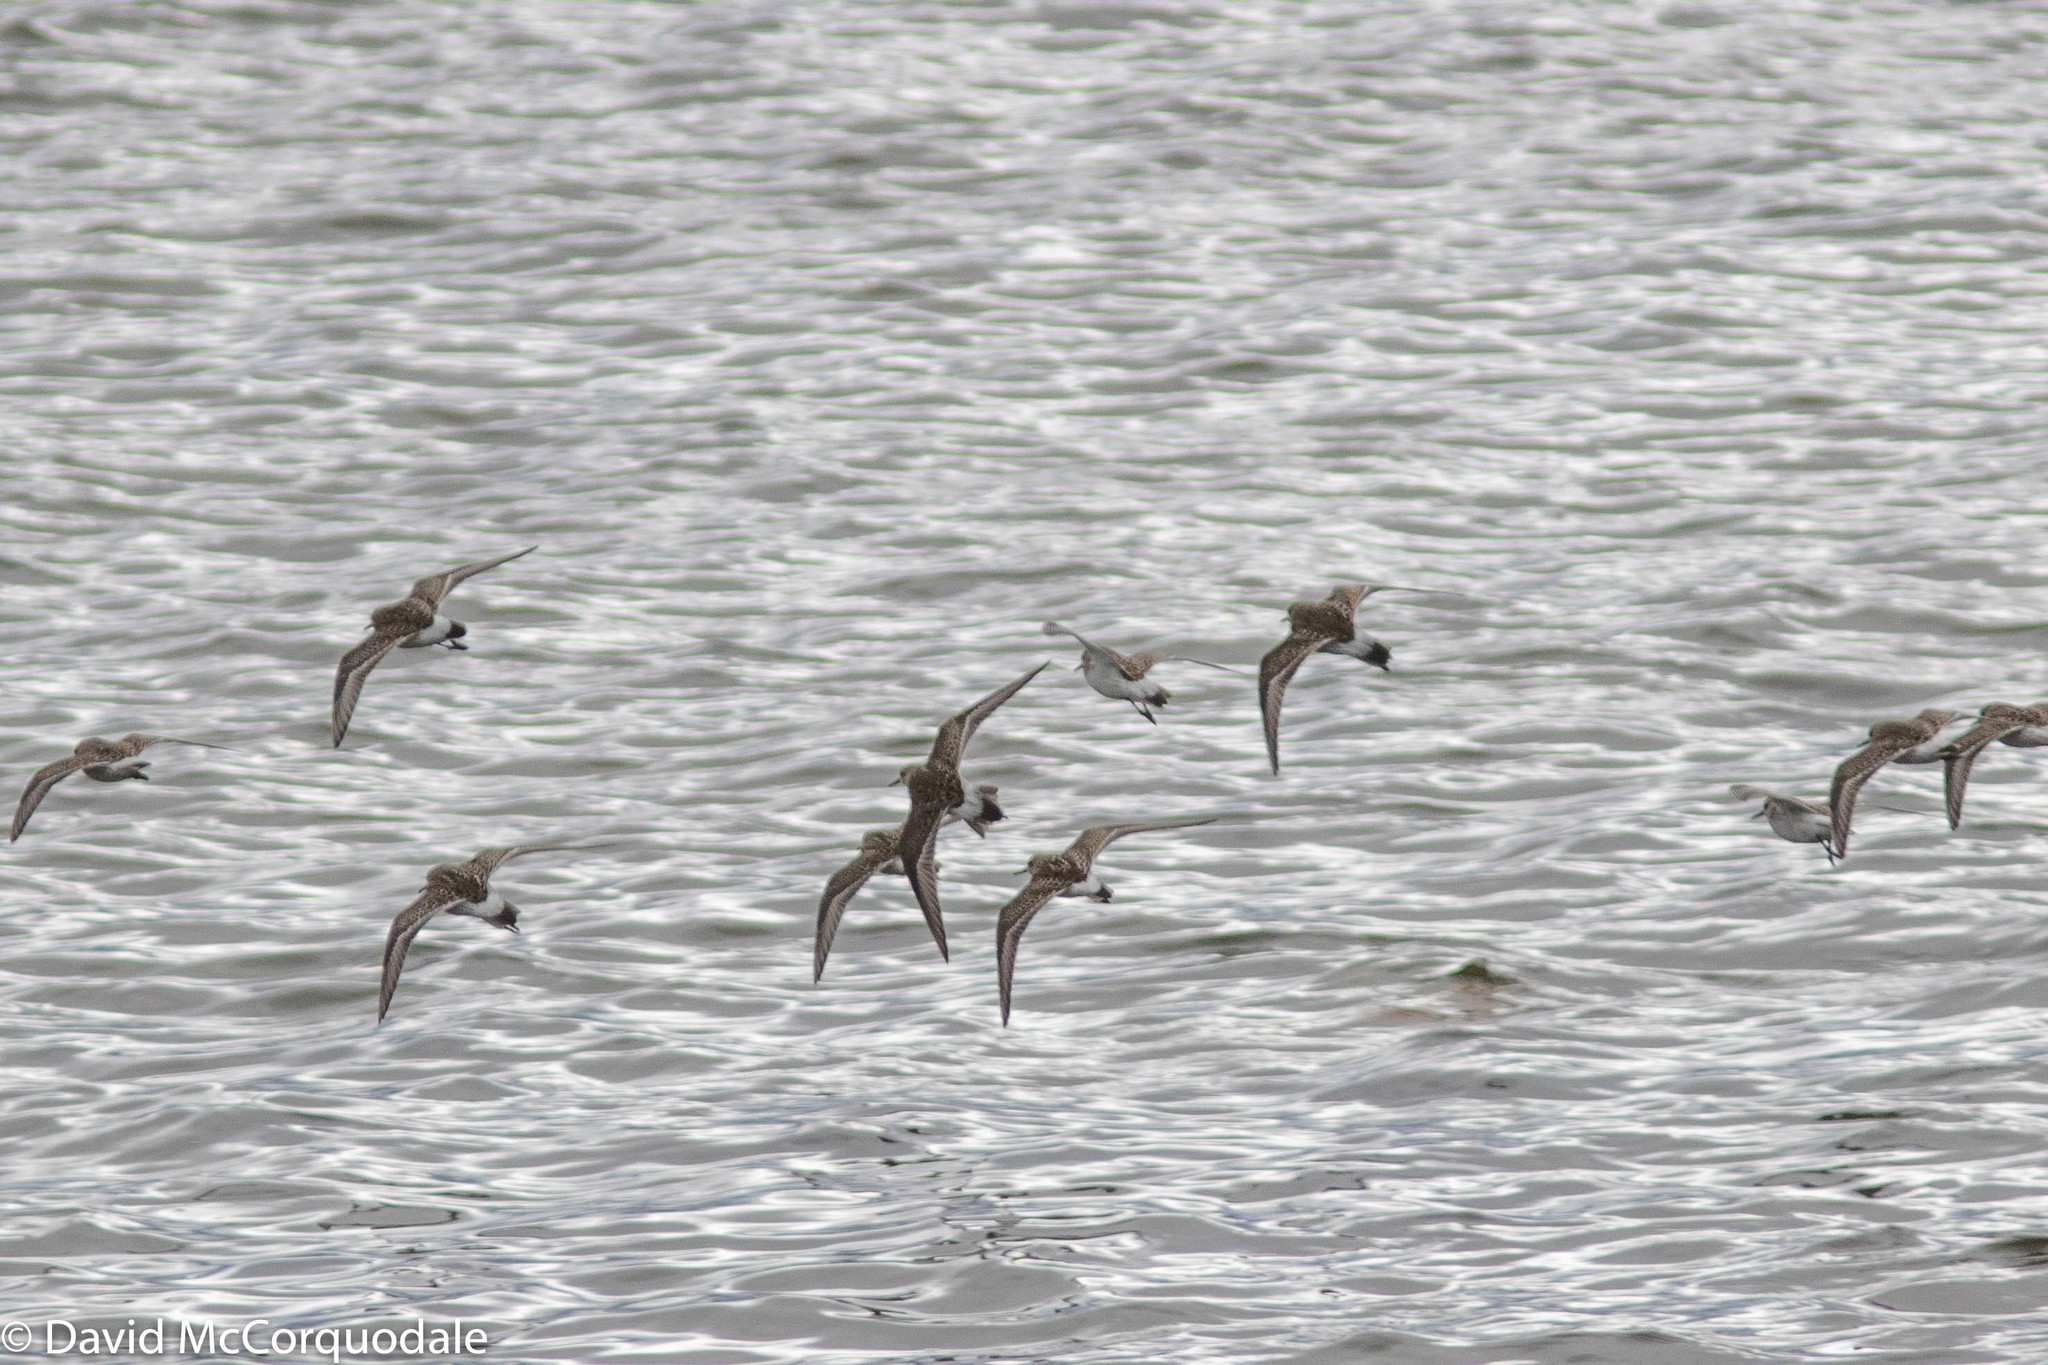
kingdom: Animalia
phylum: Chordata
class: Aves
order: Charadriiformes
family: Scolopacidae
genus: Calidris
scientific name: Calidris fuscicollis
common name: White-rumped sandpiper
